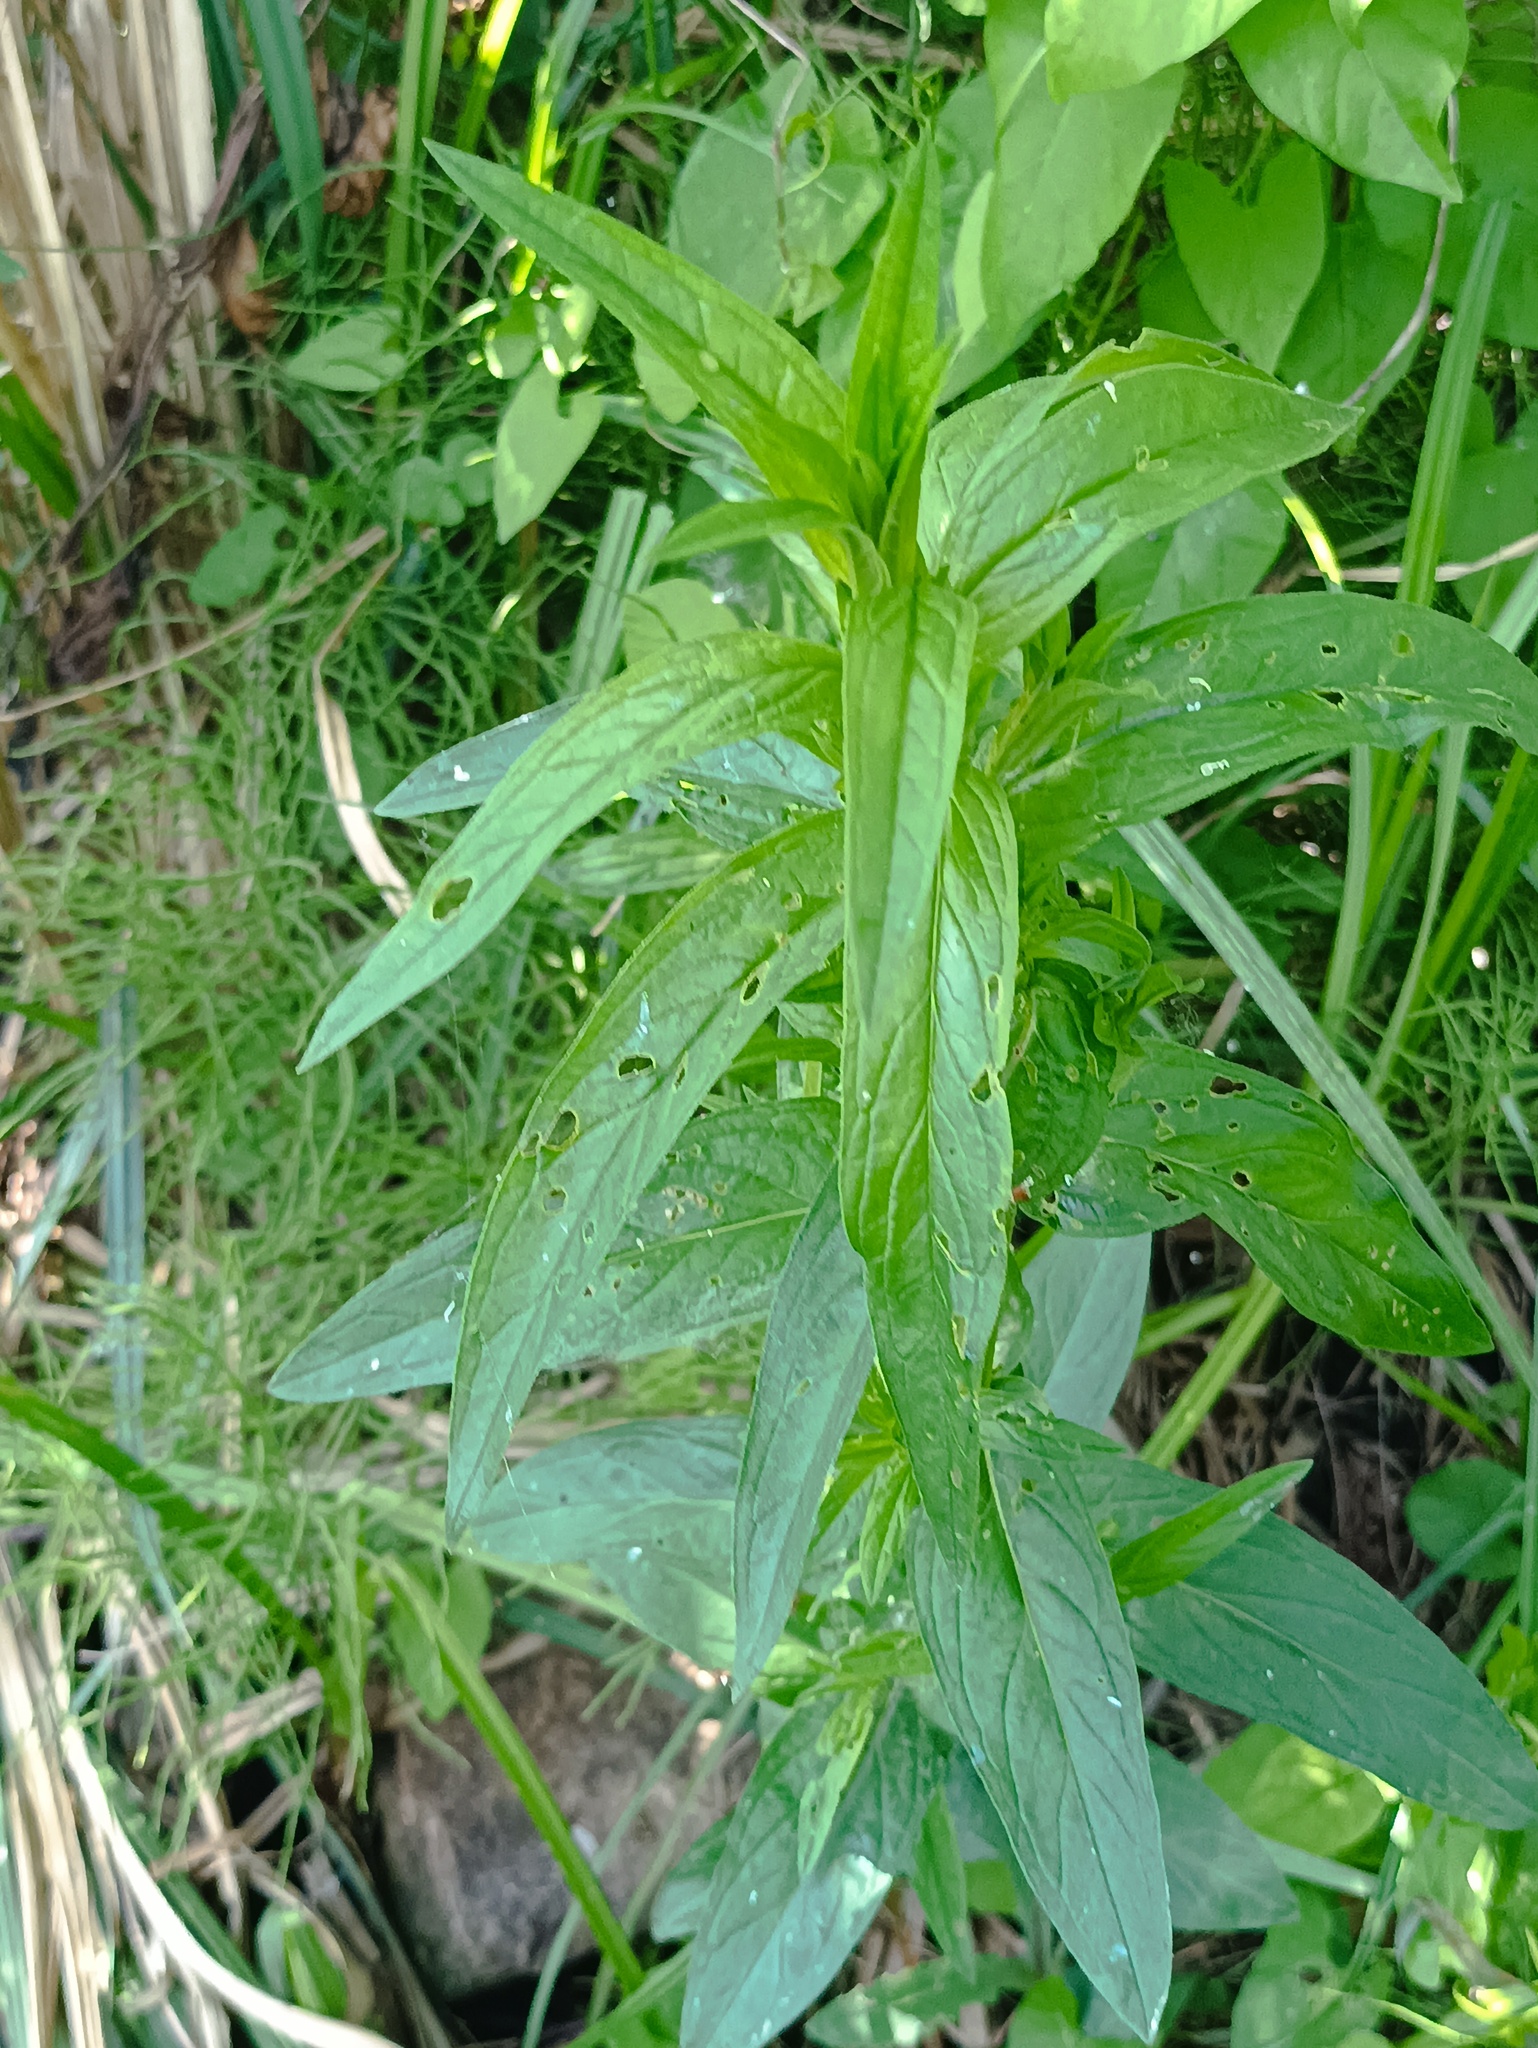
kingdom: Plantae
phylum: Tracheophyta
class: Magnoliopsida
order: Myrtales
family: Lythraceae
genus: Lythrum
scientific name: Lythrum salicaria
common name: Purple loosestrife
